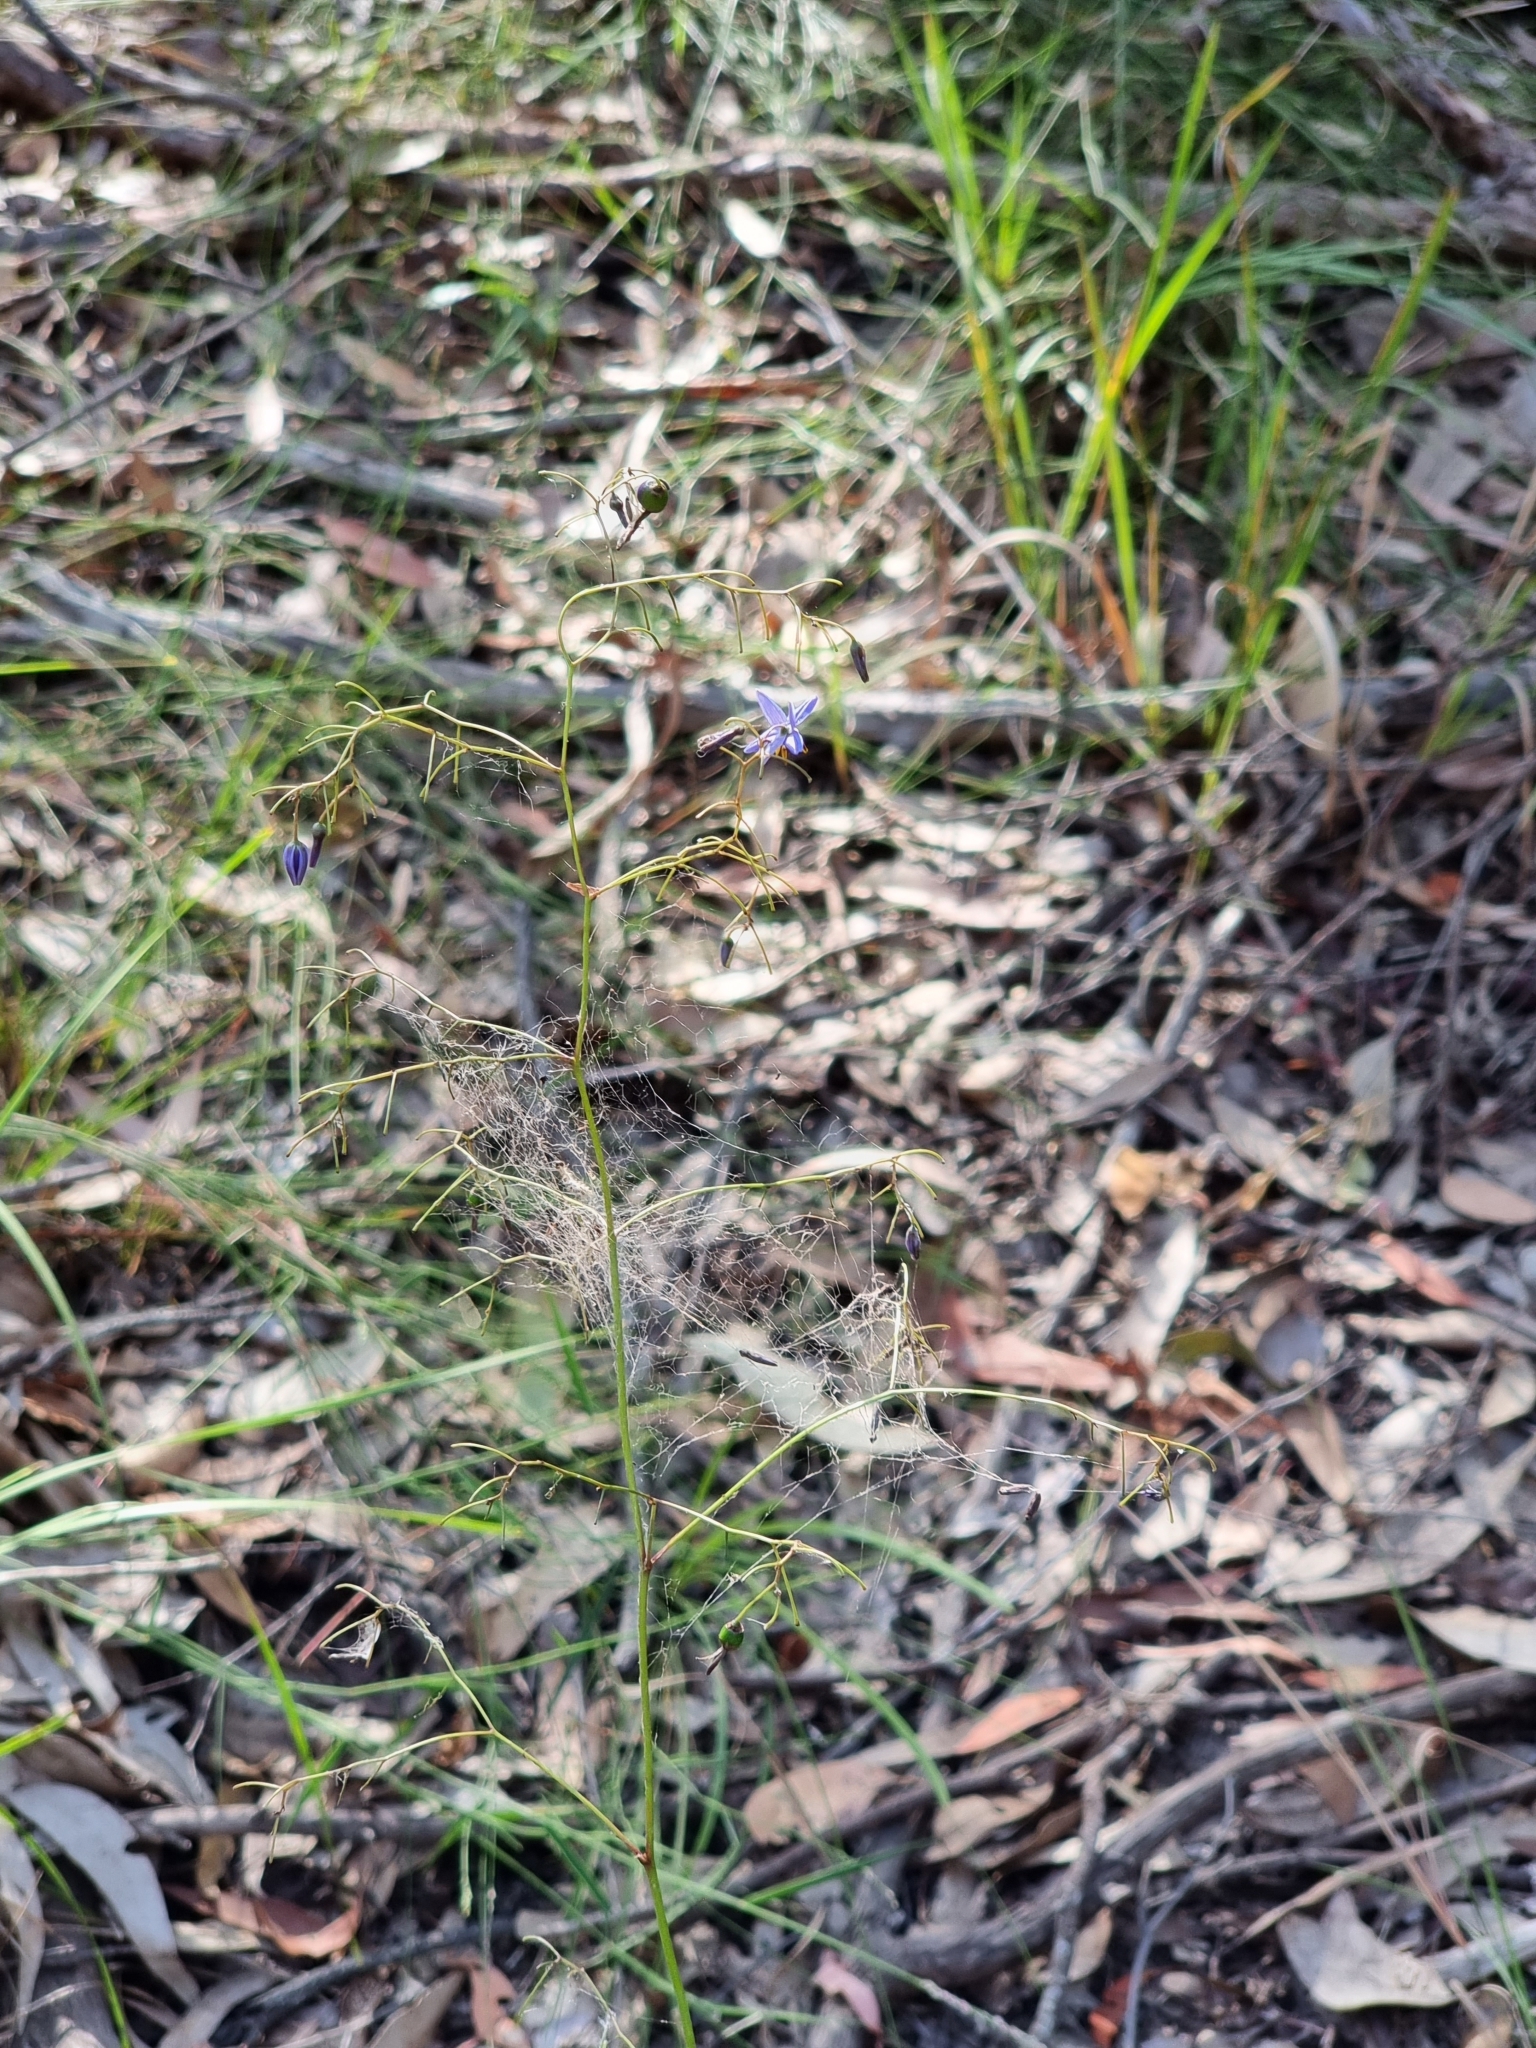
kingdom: Plantae
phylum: Tracheophyta
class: Liliopsida
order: Asparagales
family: Asphodelaceae
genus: Dianella
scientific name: Dianella revoluta
